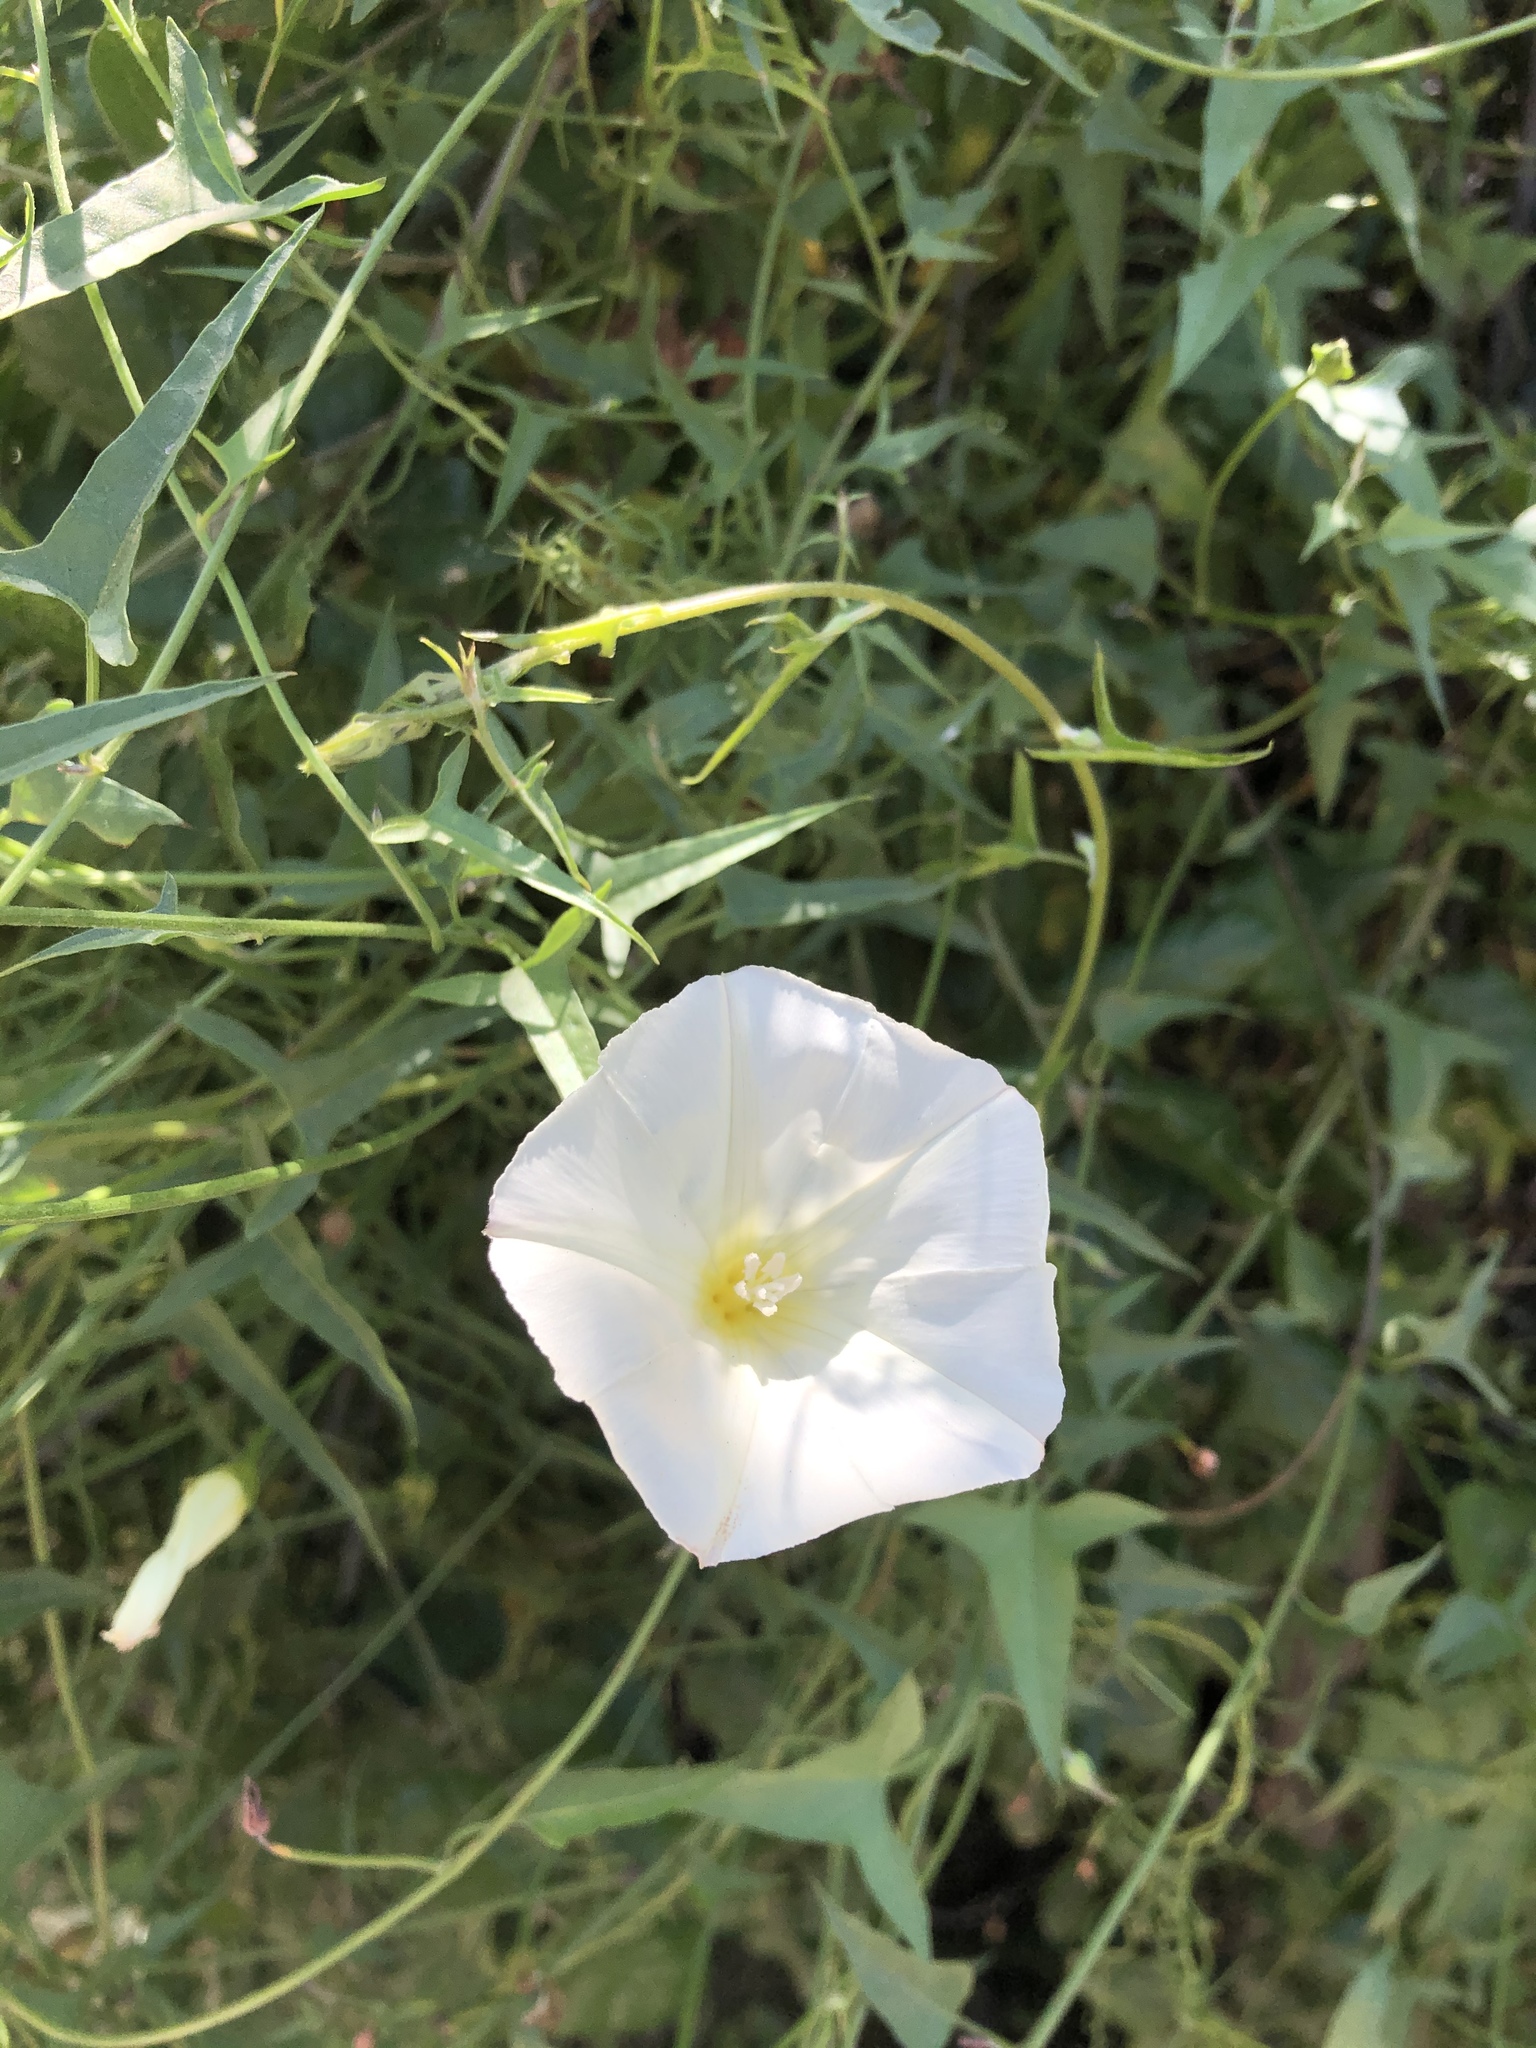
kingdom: Plantae
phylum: Tracheophyta
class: Magnoliopsida
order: Solanales
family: Convolvulaceae
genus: Calystegia
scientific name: Calystegia macrostegia
